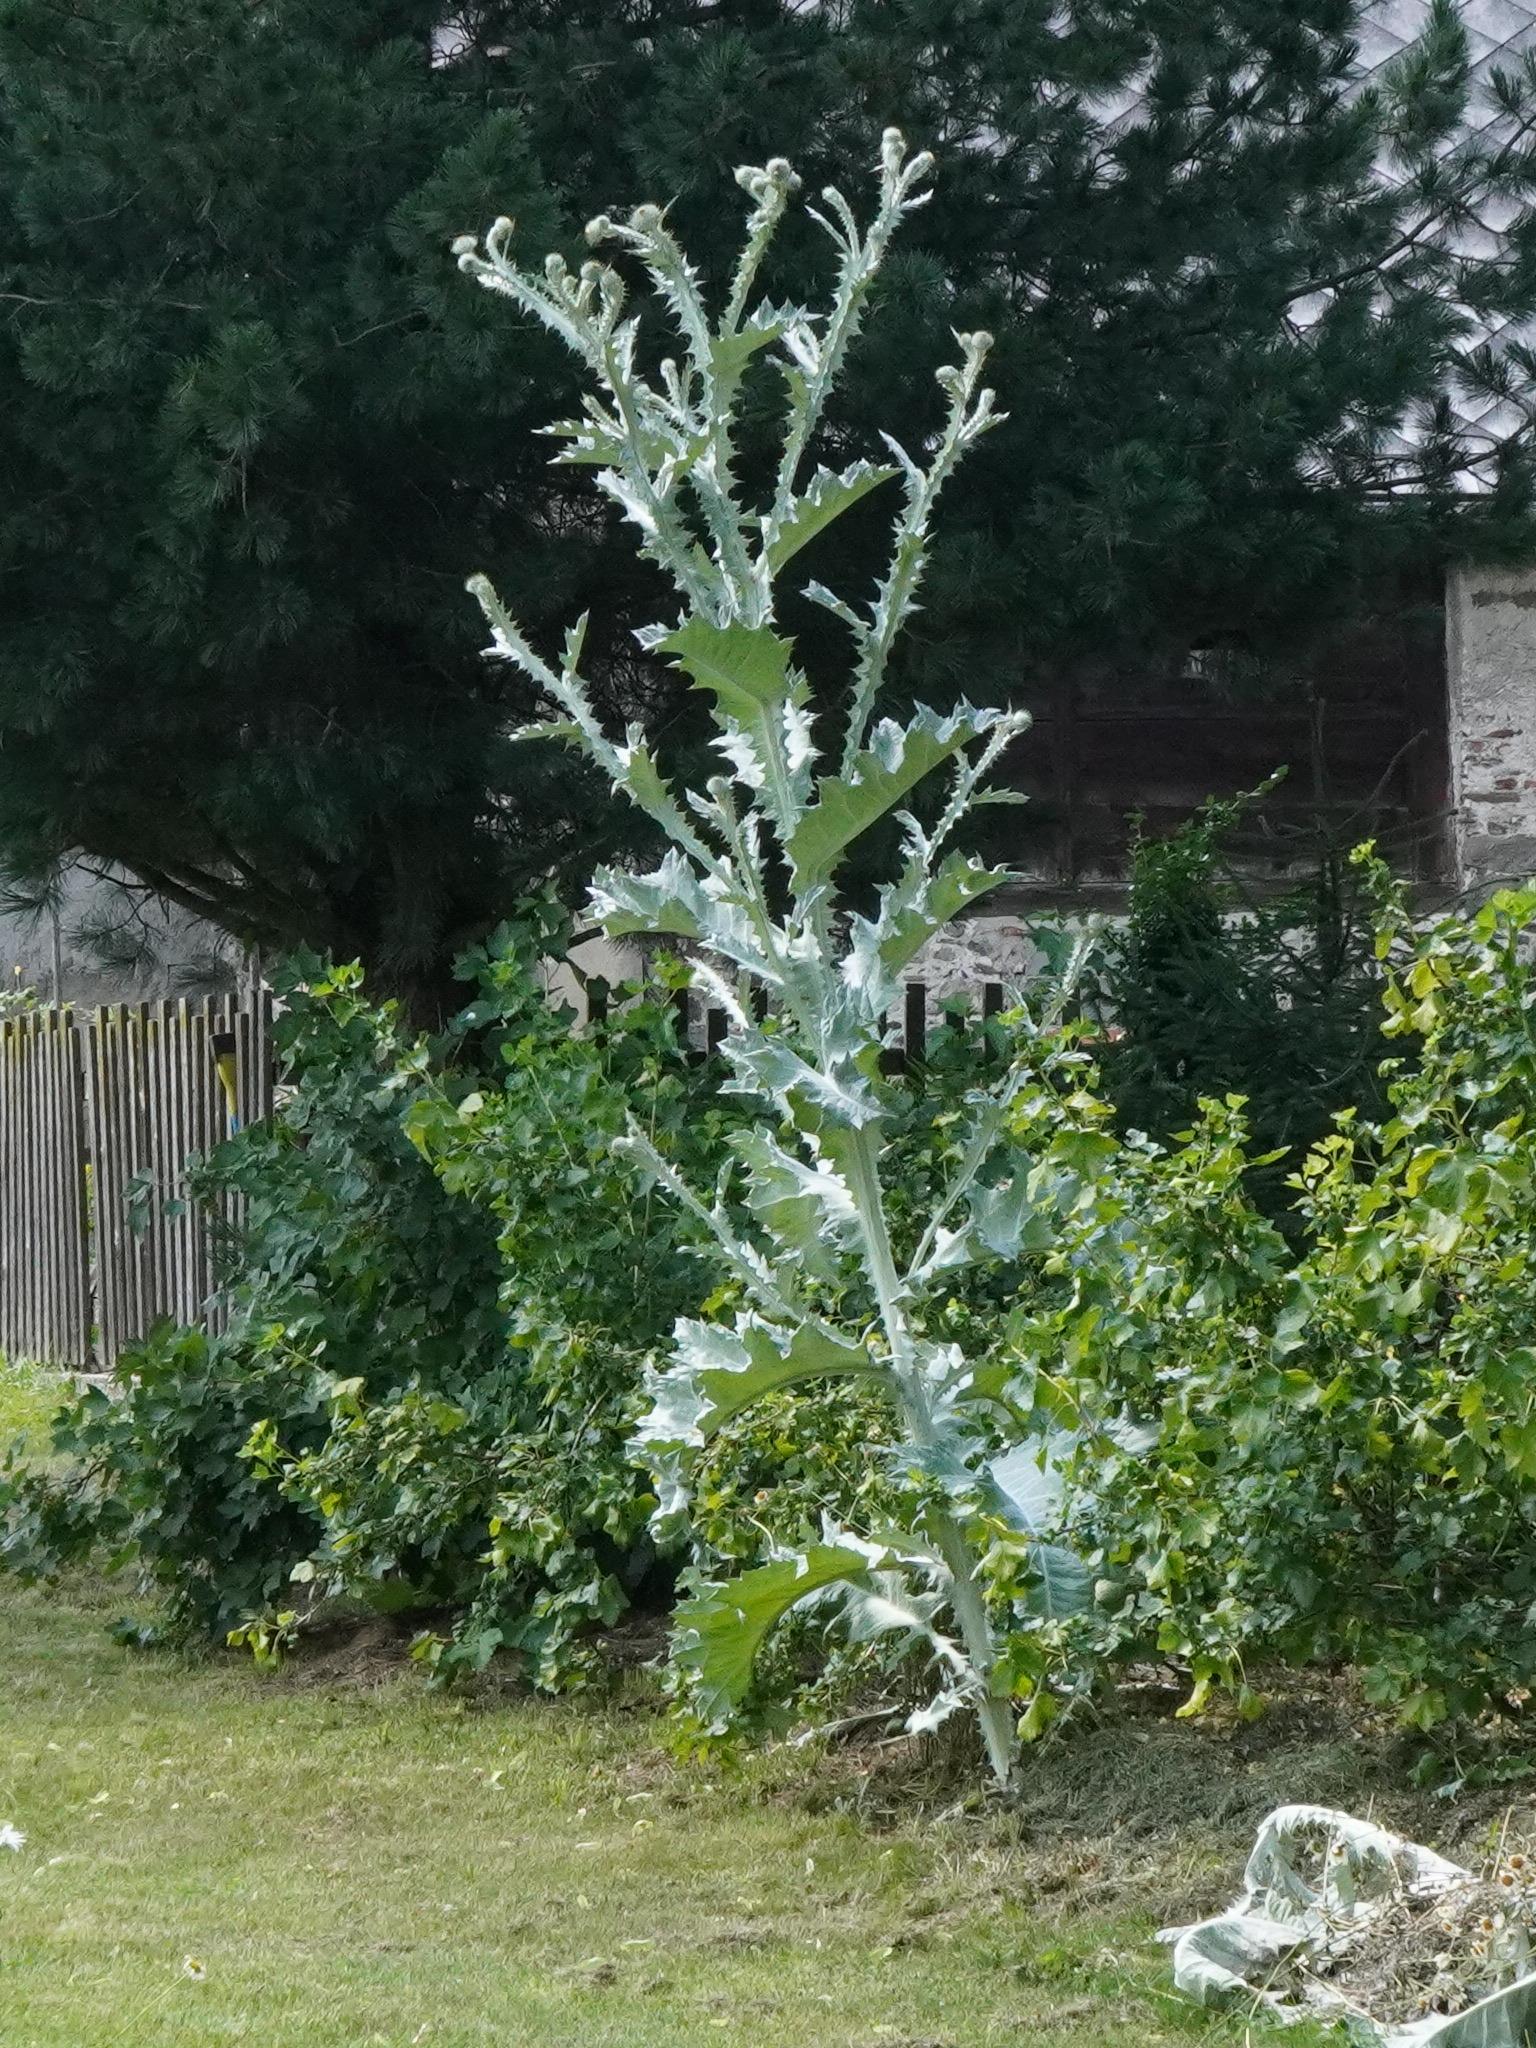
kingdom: Plantae
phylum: Tracheophyta
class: Magnoliopsida
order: Asterales
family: Asteraceae
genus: Onopordum
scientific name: Onopordum acanthium
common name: Scotch thistle
